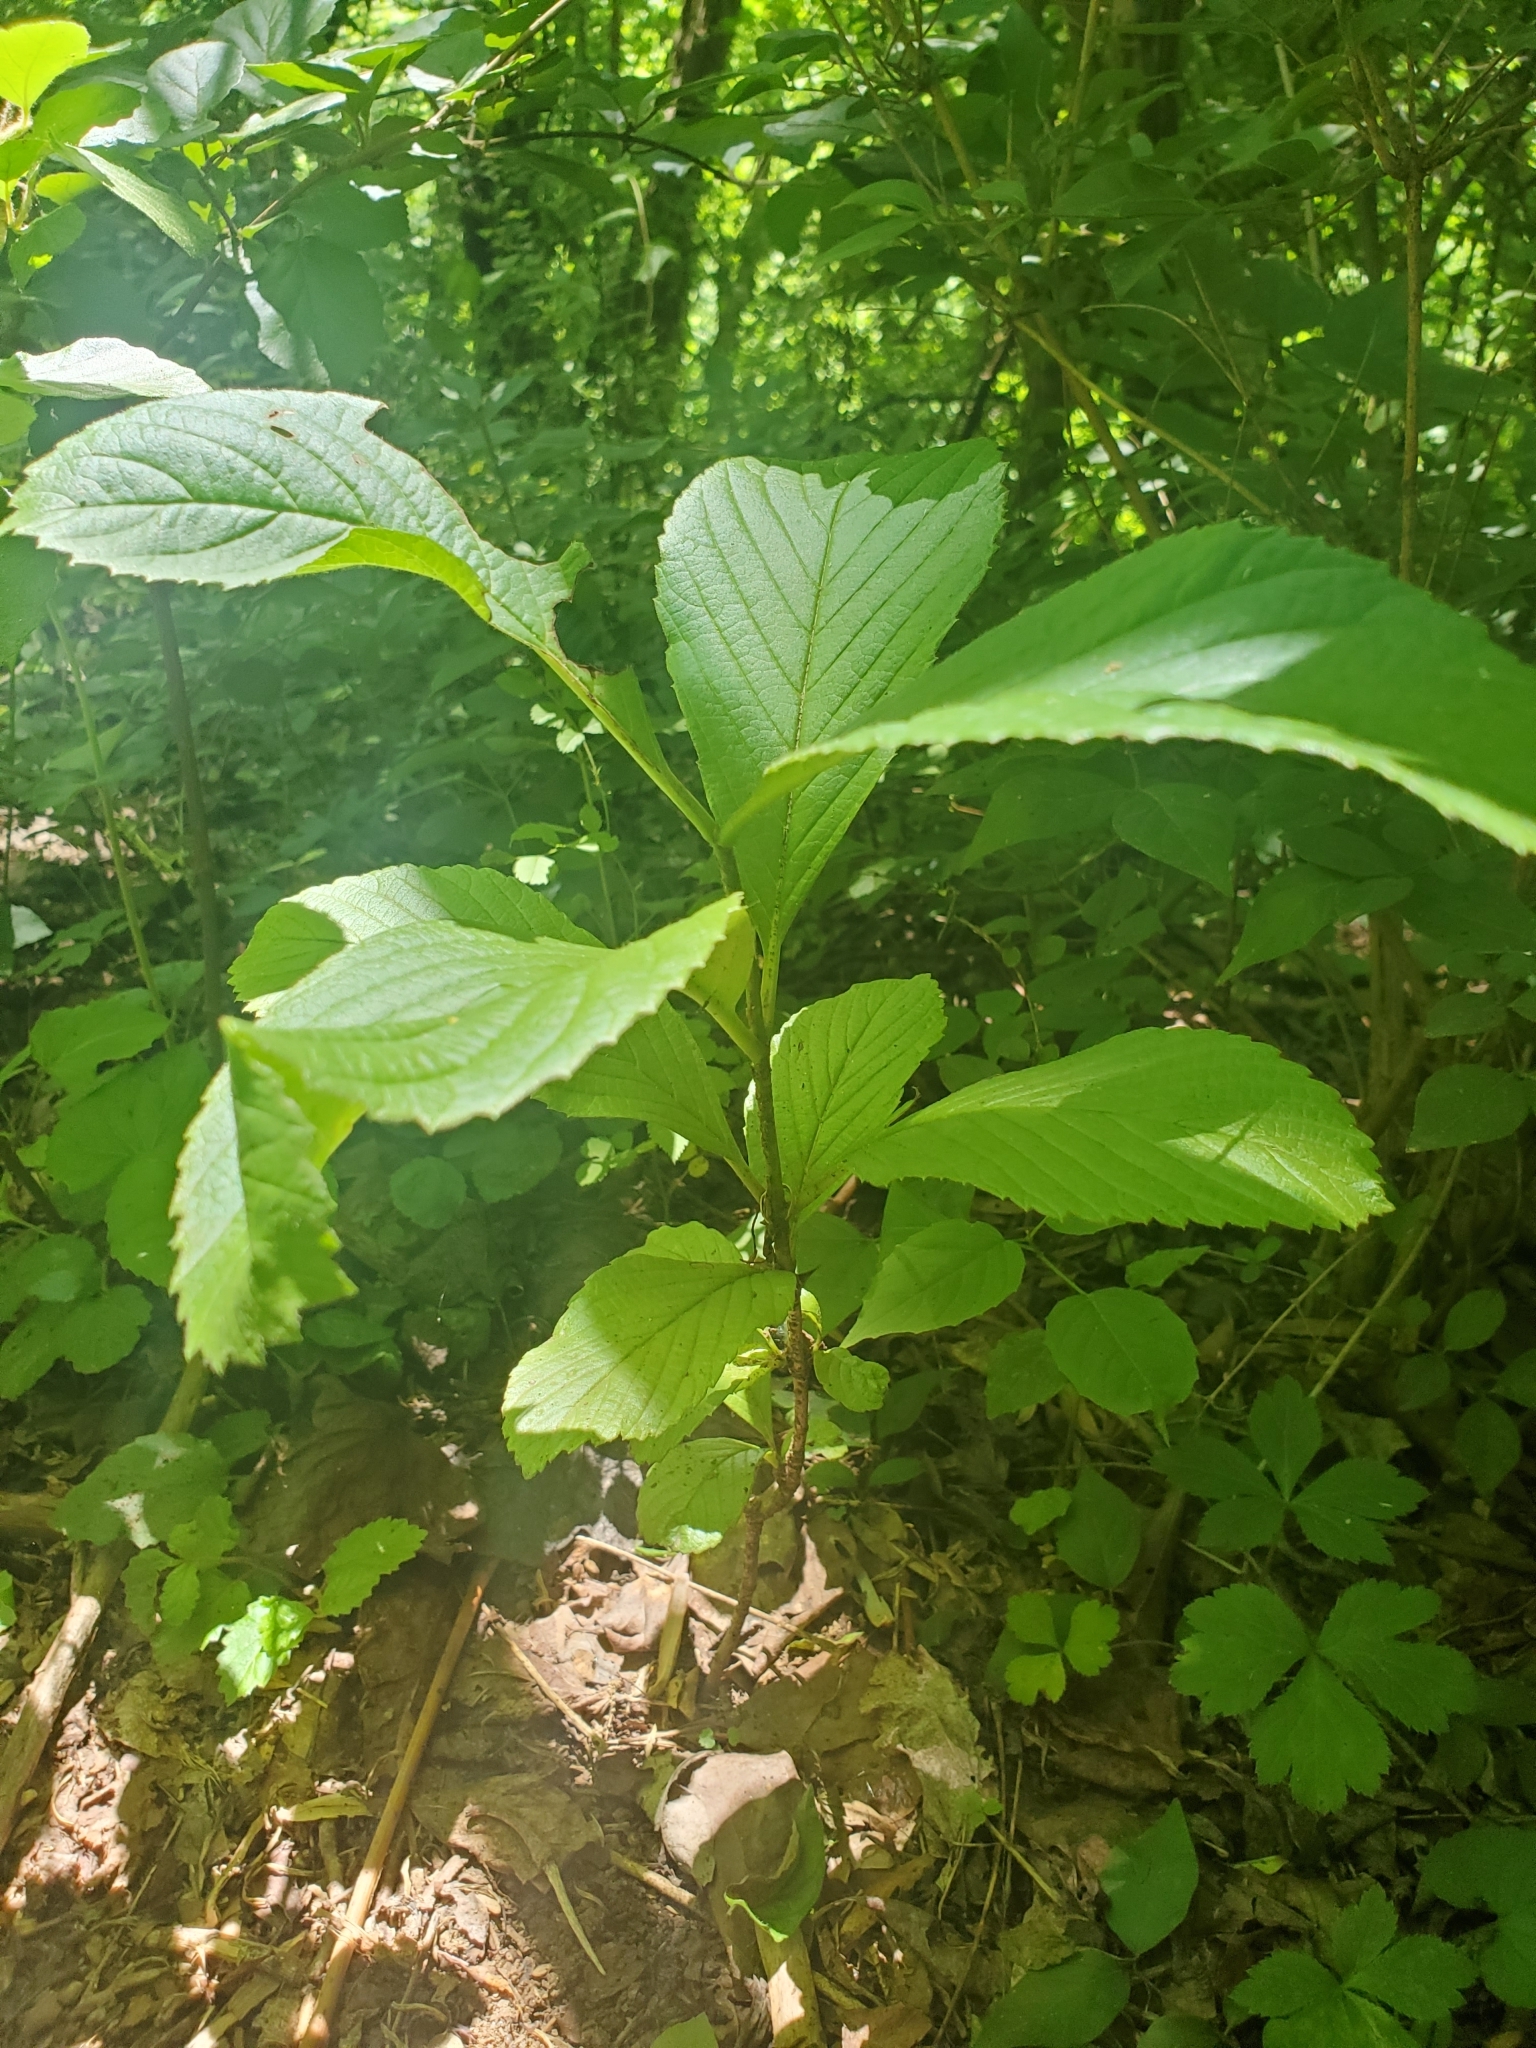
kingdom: Plantae
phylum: Tracheophyta
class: Magnoliopsida
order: Dipsacales
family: Viburnaceae
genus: Viburnum
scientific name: Viburnum sieboldii
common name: Siebold's arrowwood
